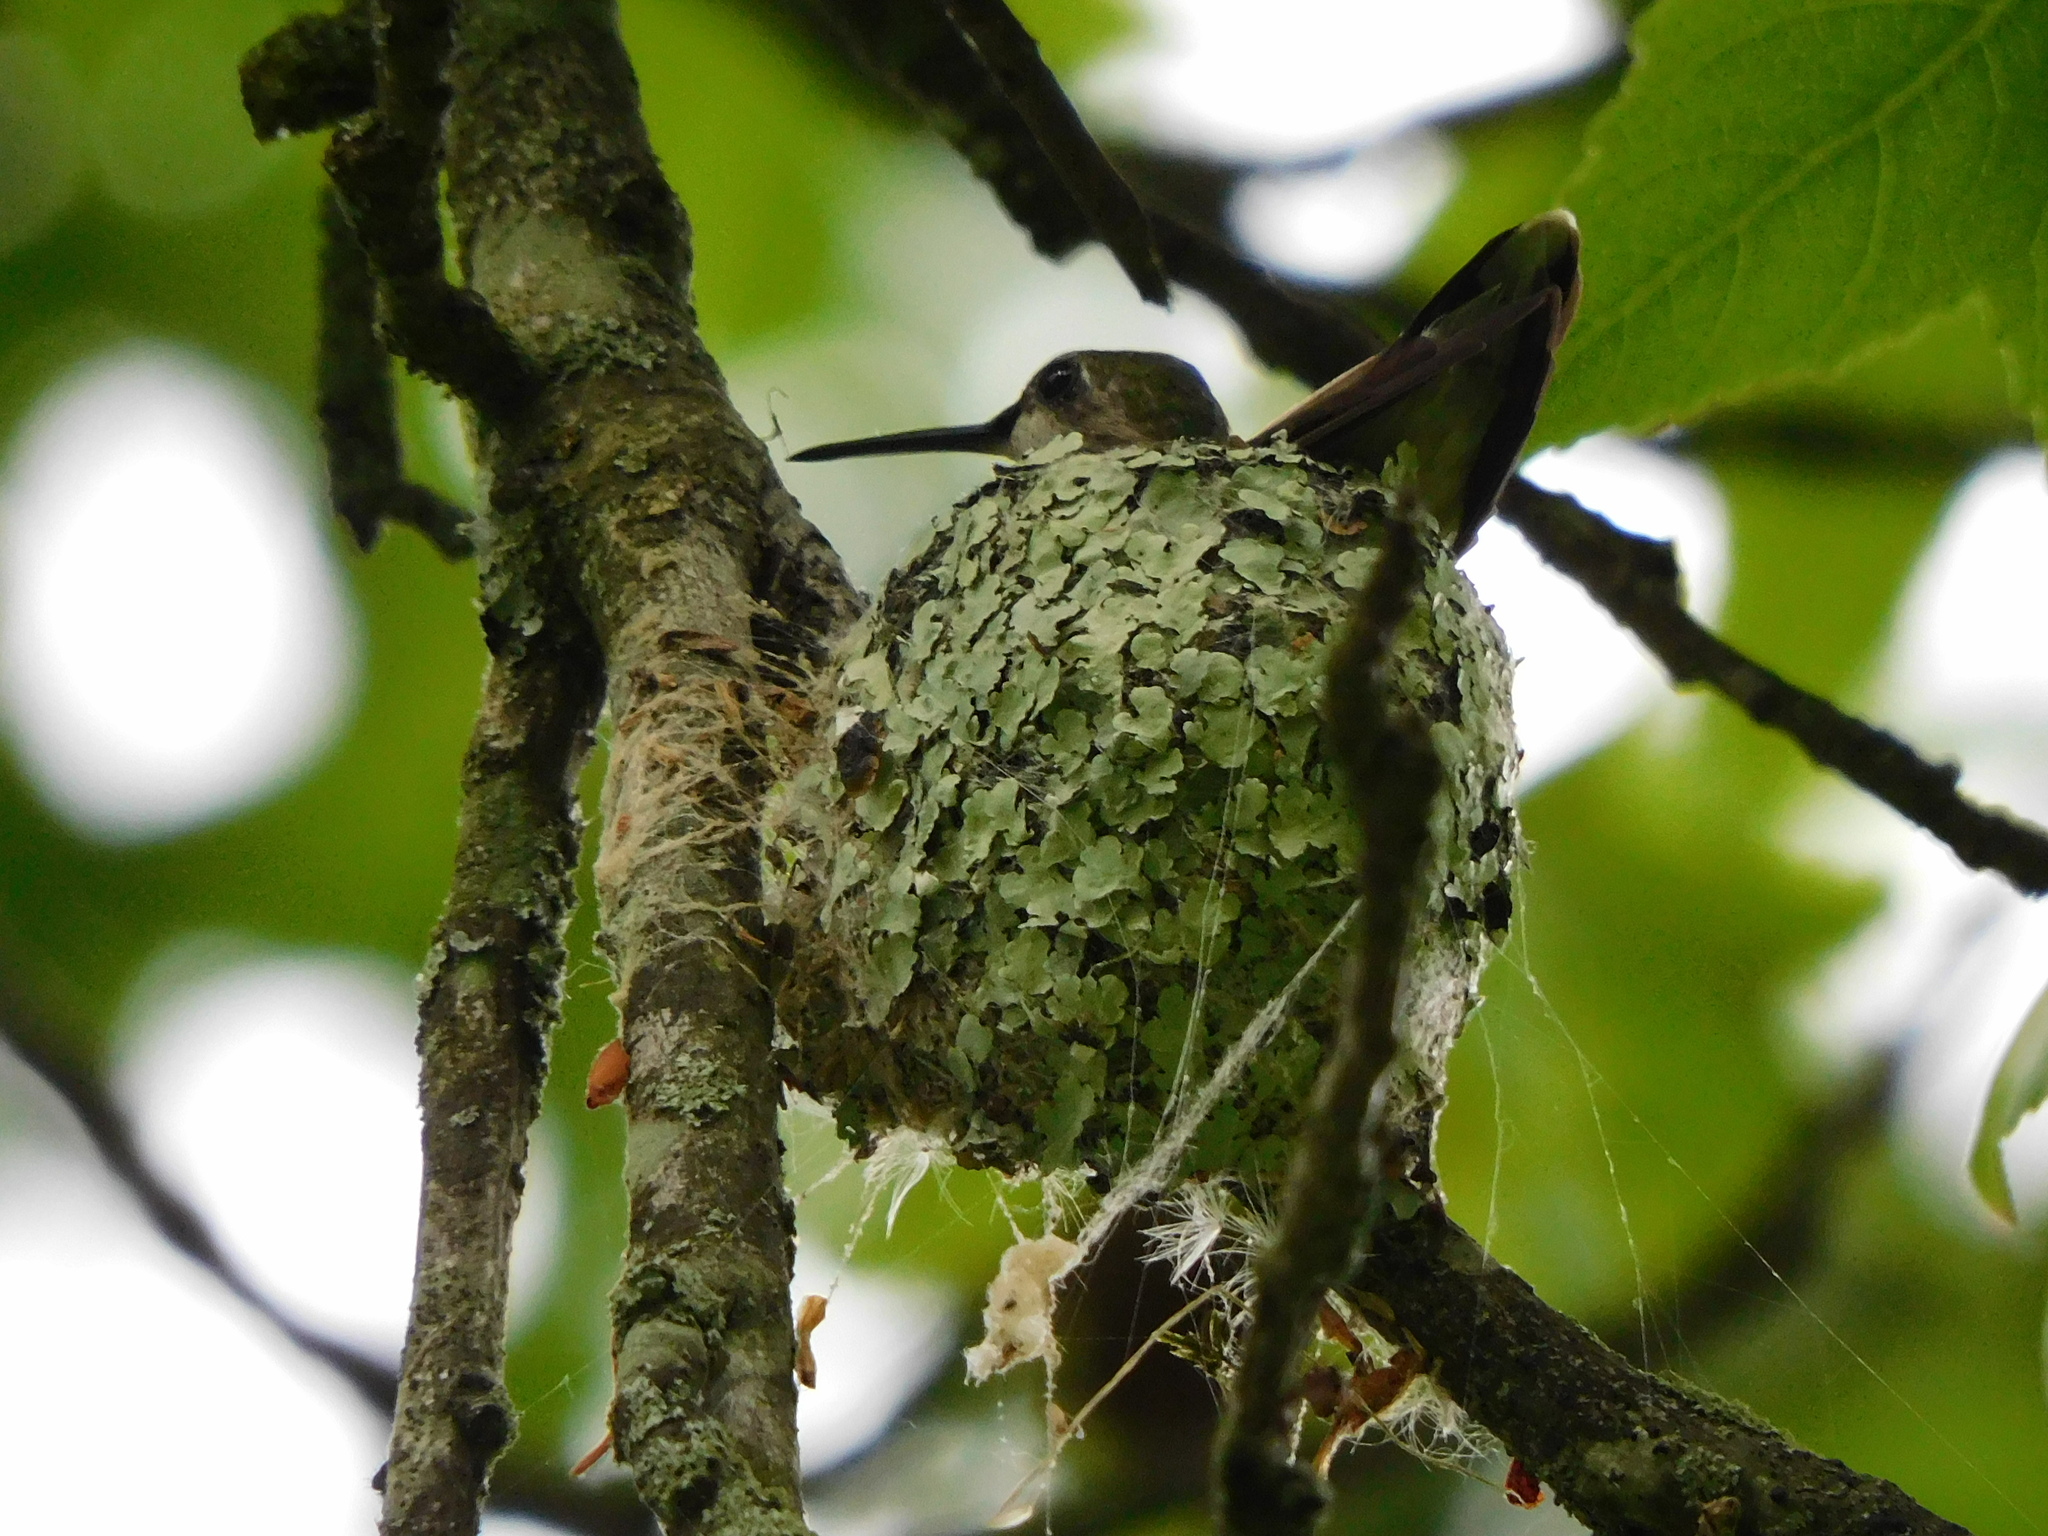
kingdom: Animalia
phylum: Chordata
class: Aves
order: Apodiformes
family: Trochilidae
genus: Archilochus
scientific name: Archilochus colubris
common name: Ruby-throated hummingbird
